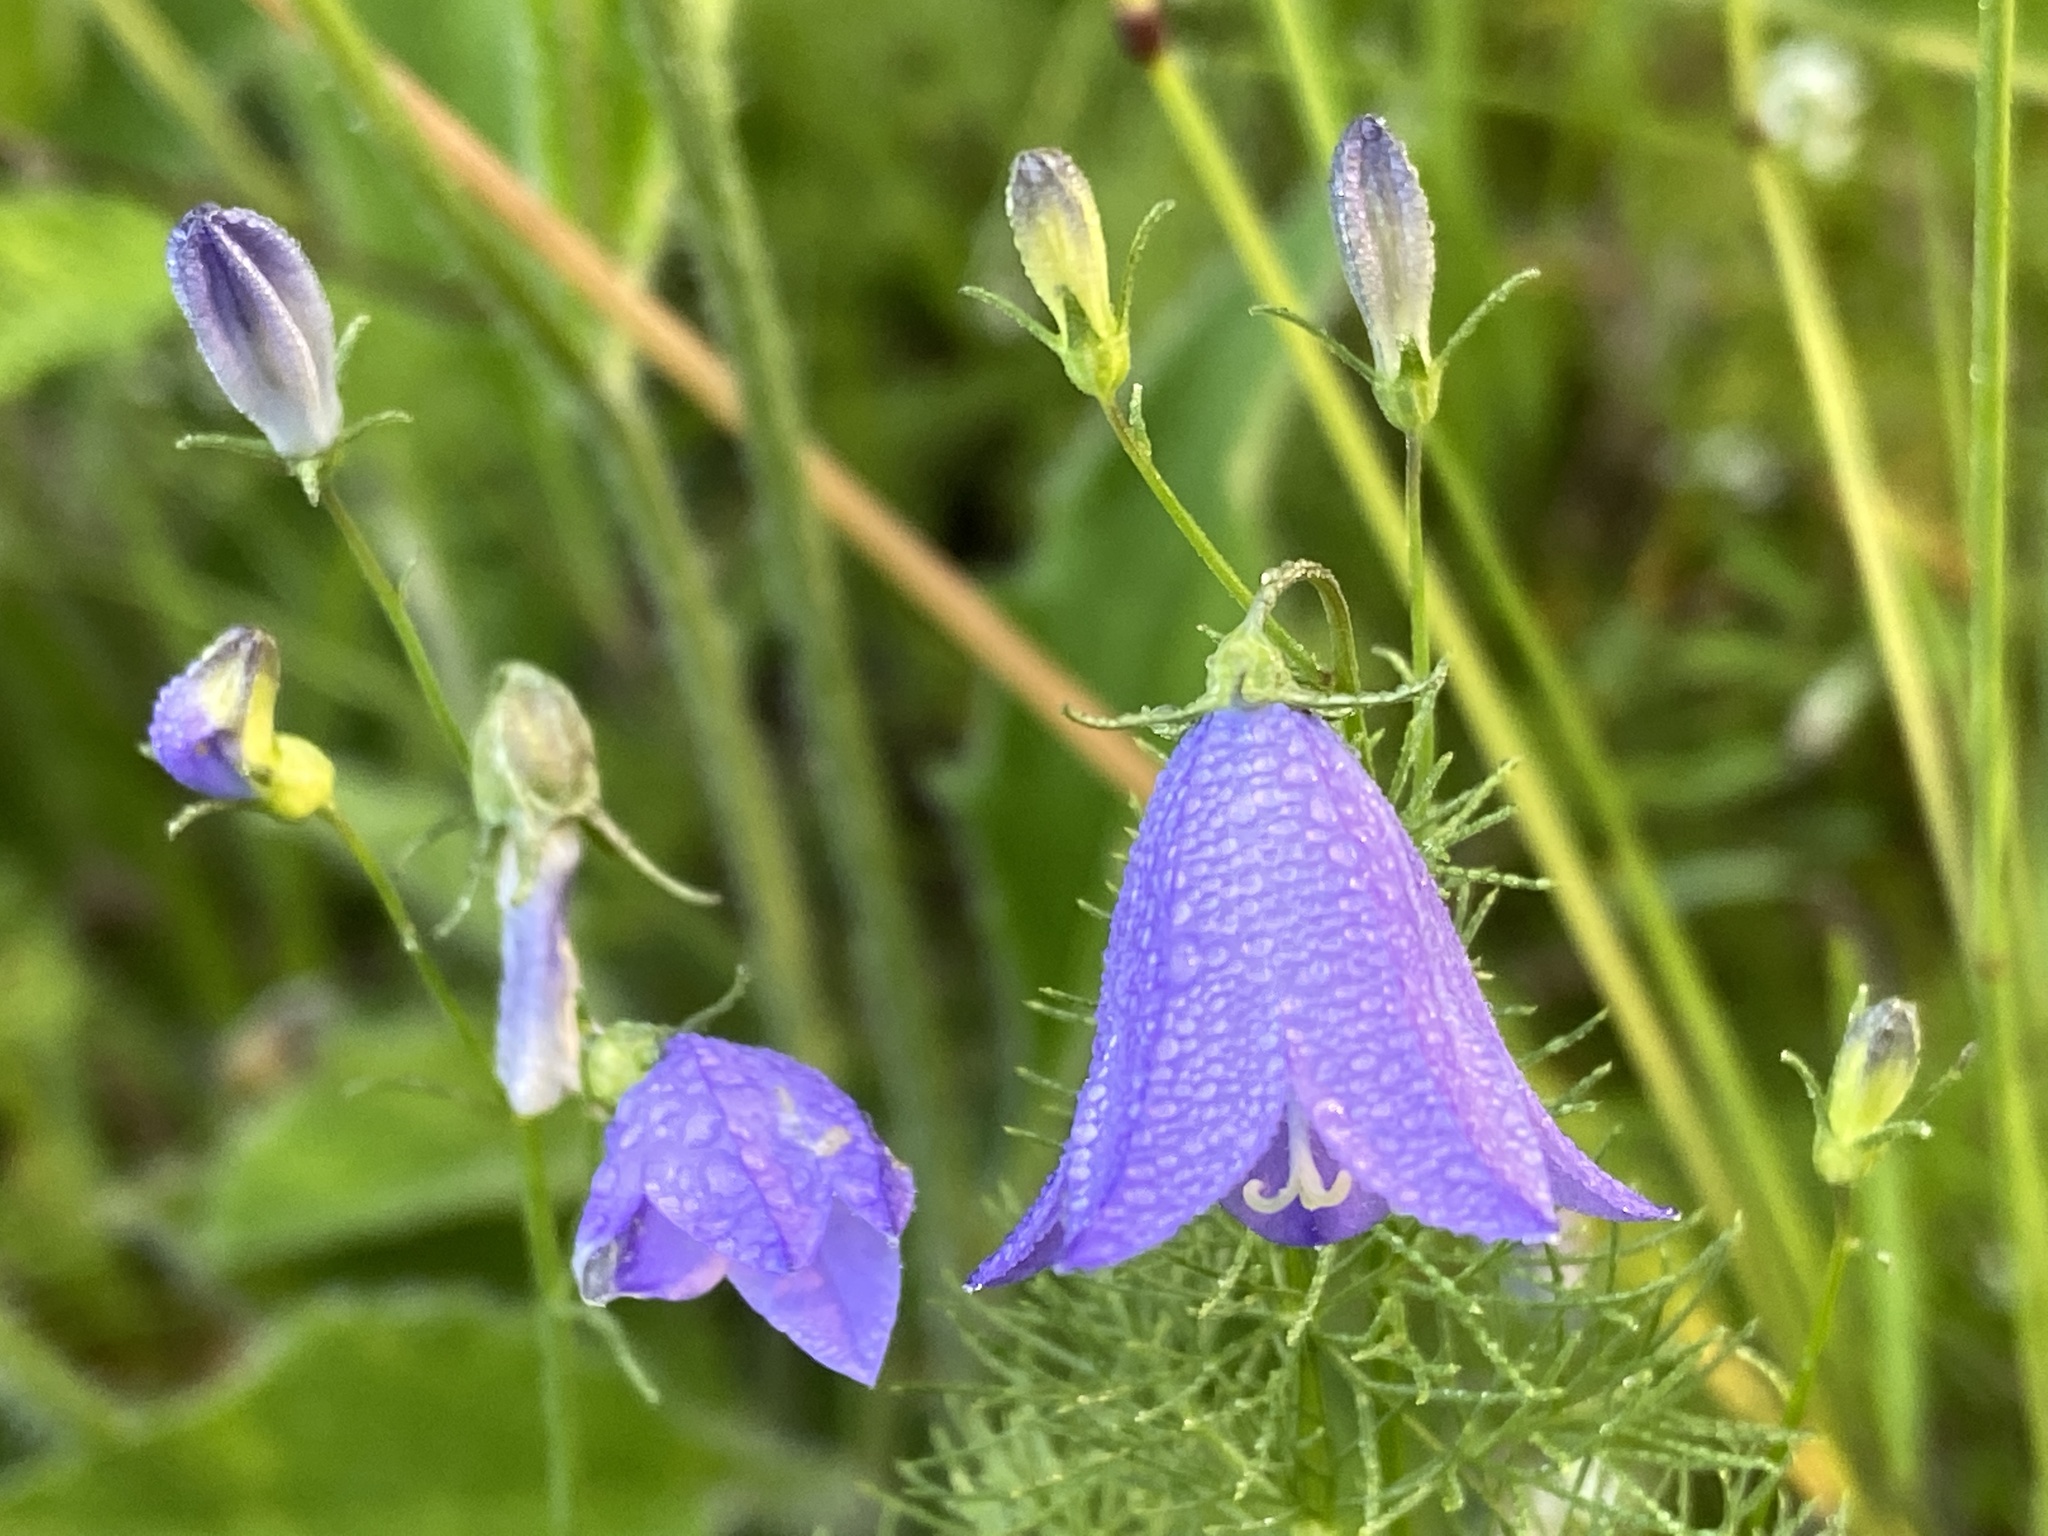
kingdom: Plantae
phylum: Tracheophyta
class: Magnoliopsida
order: Asterales
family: Campanulaceae
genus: Campanula
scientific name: Campanula rotundifolia
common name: Harebell
